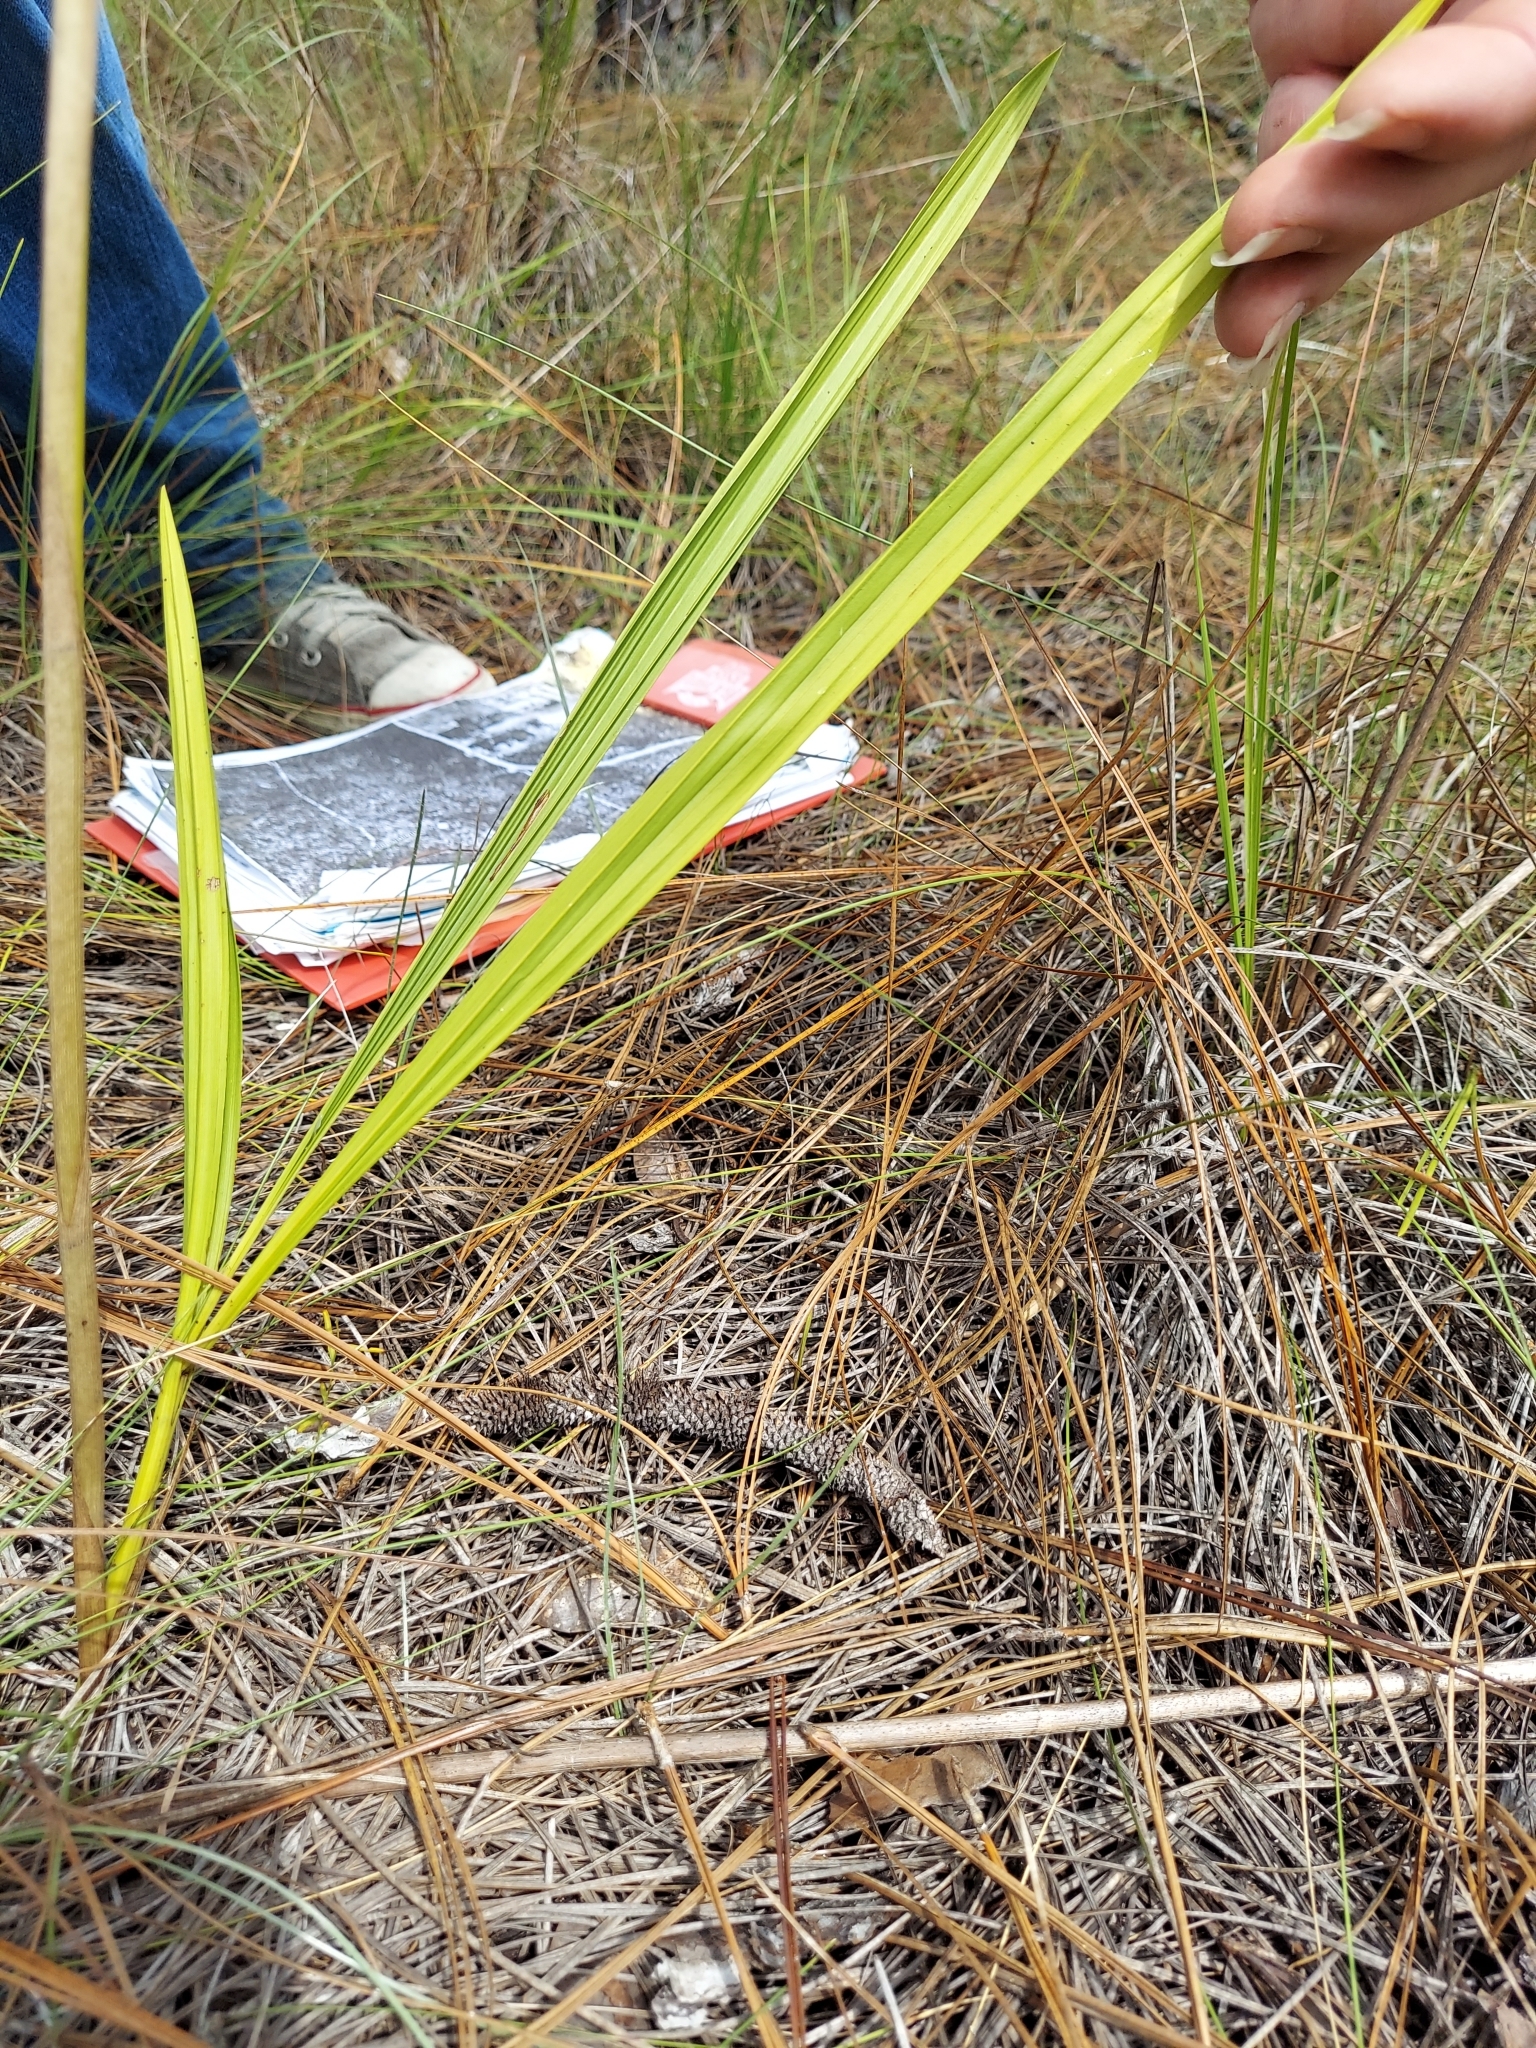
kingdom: Plantae
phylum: Tracheophyta
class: Liliopsida
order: Asparagales
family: Orchidaceae
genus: Eulophia
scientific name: Eulophia ecristata
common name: Giant orchid
